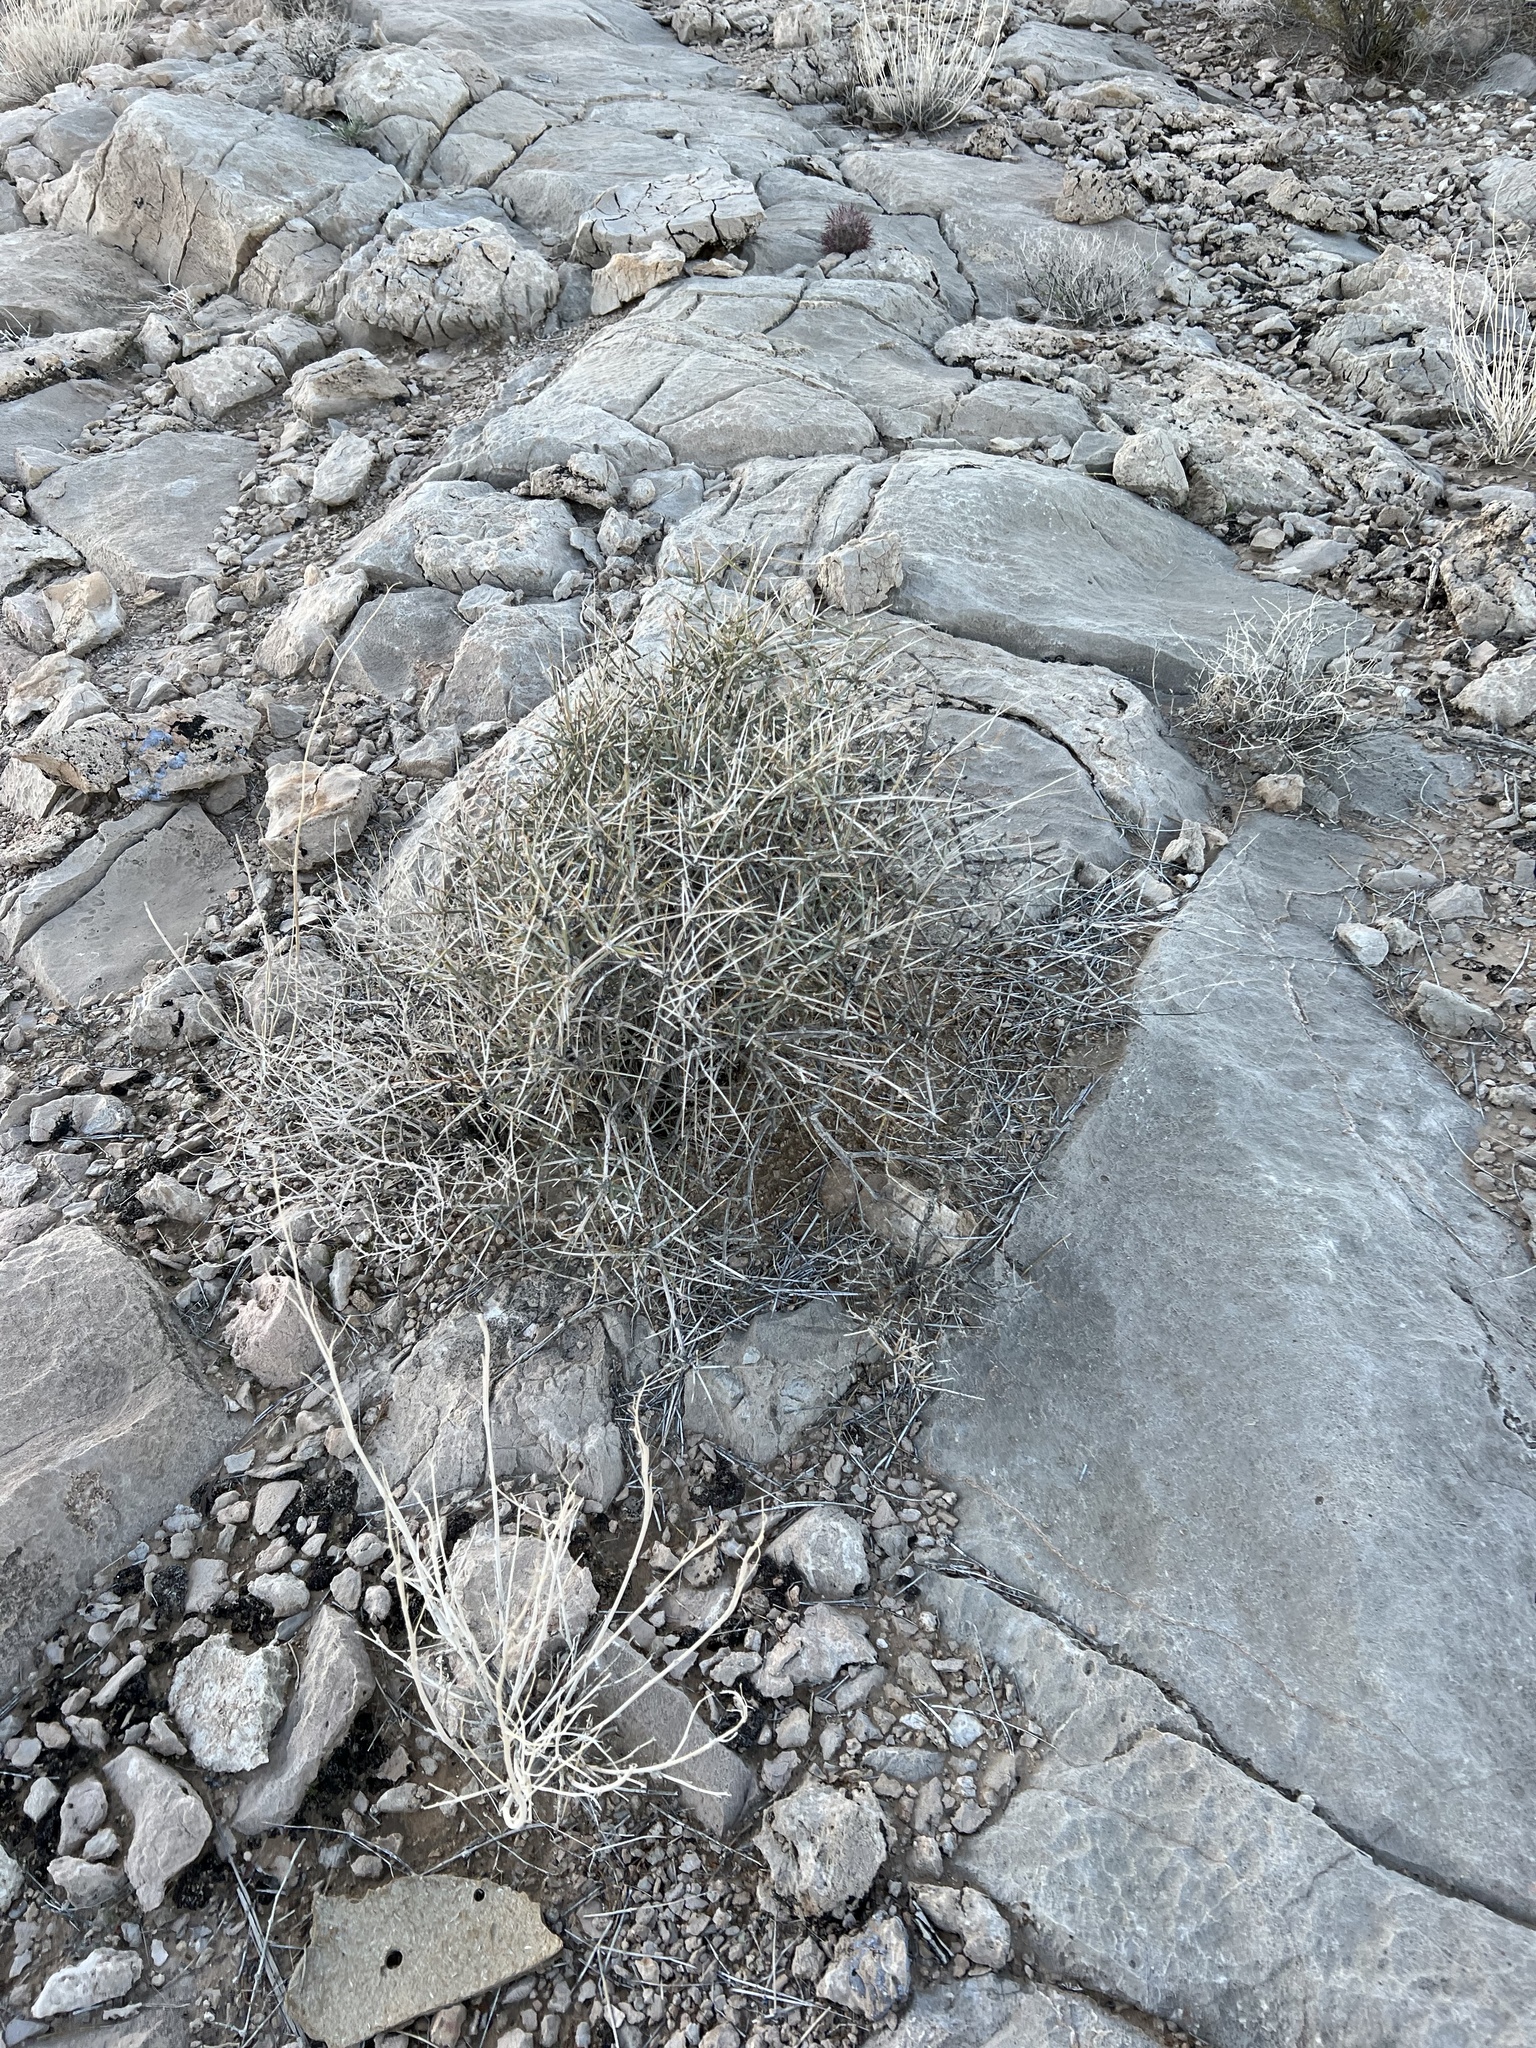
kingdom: Plantae
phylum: Tracheophyta
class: Gnetopsida
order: Ephedrales
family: Ephedraceae
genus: Ephedra
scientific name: Ephedra nevadensis
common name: Gray ephedra
